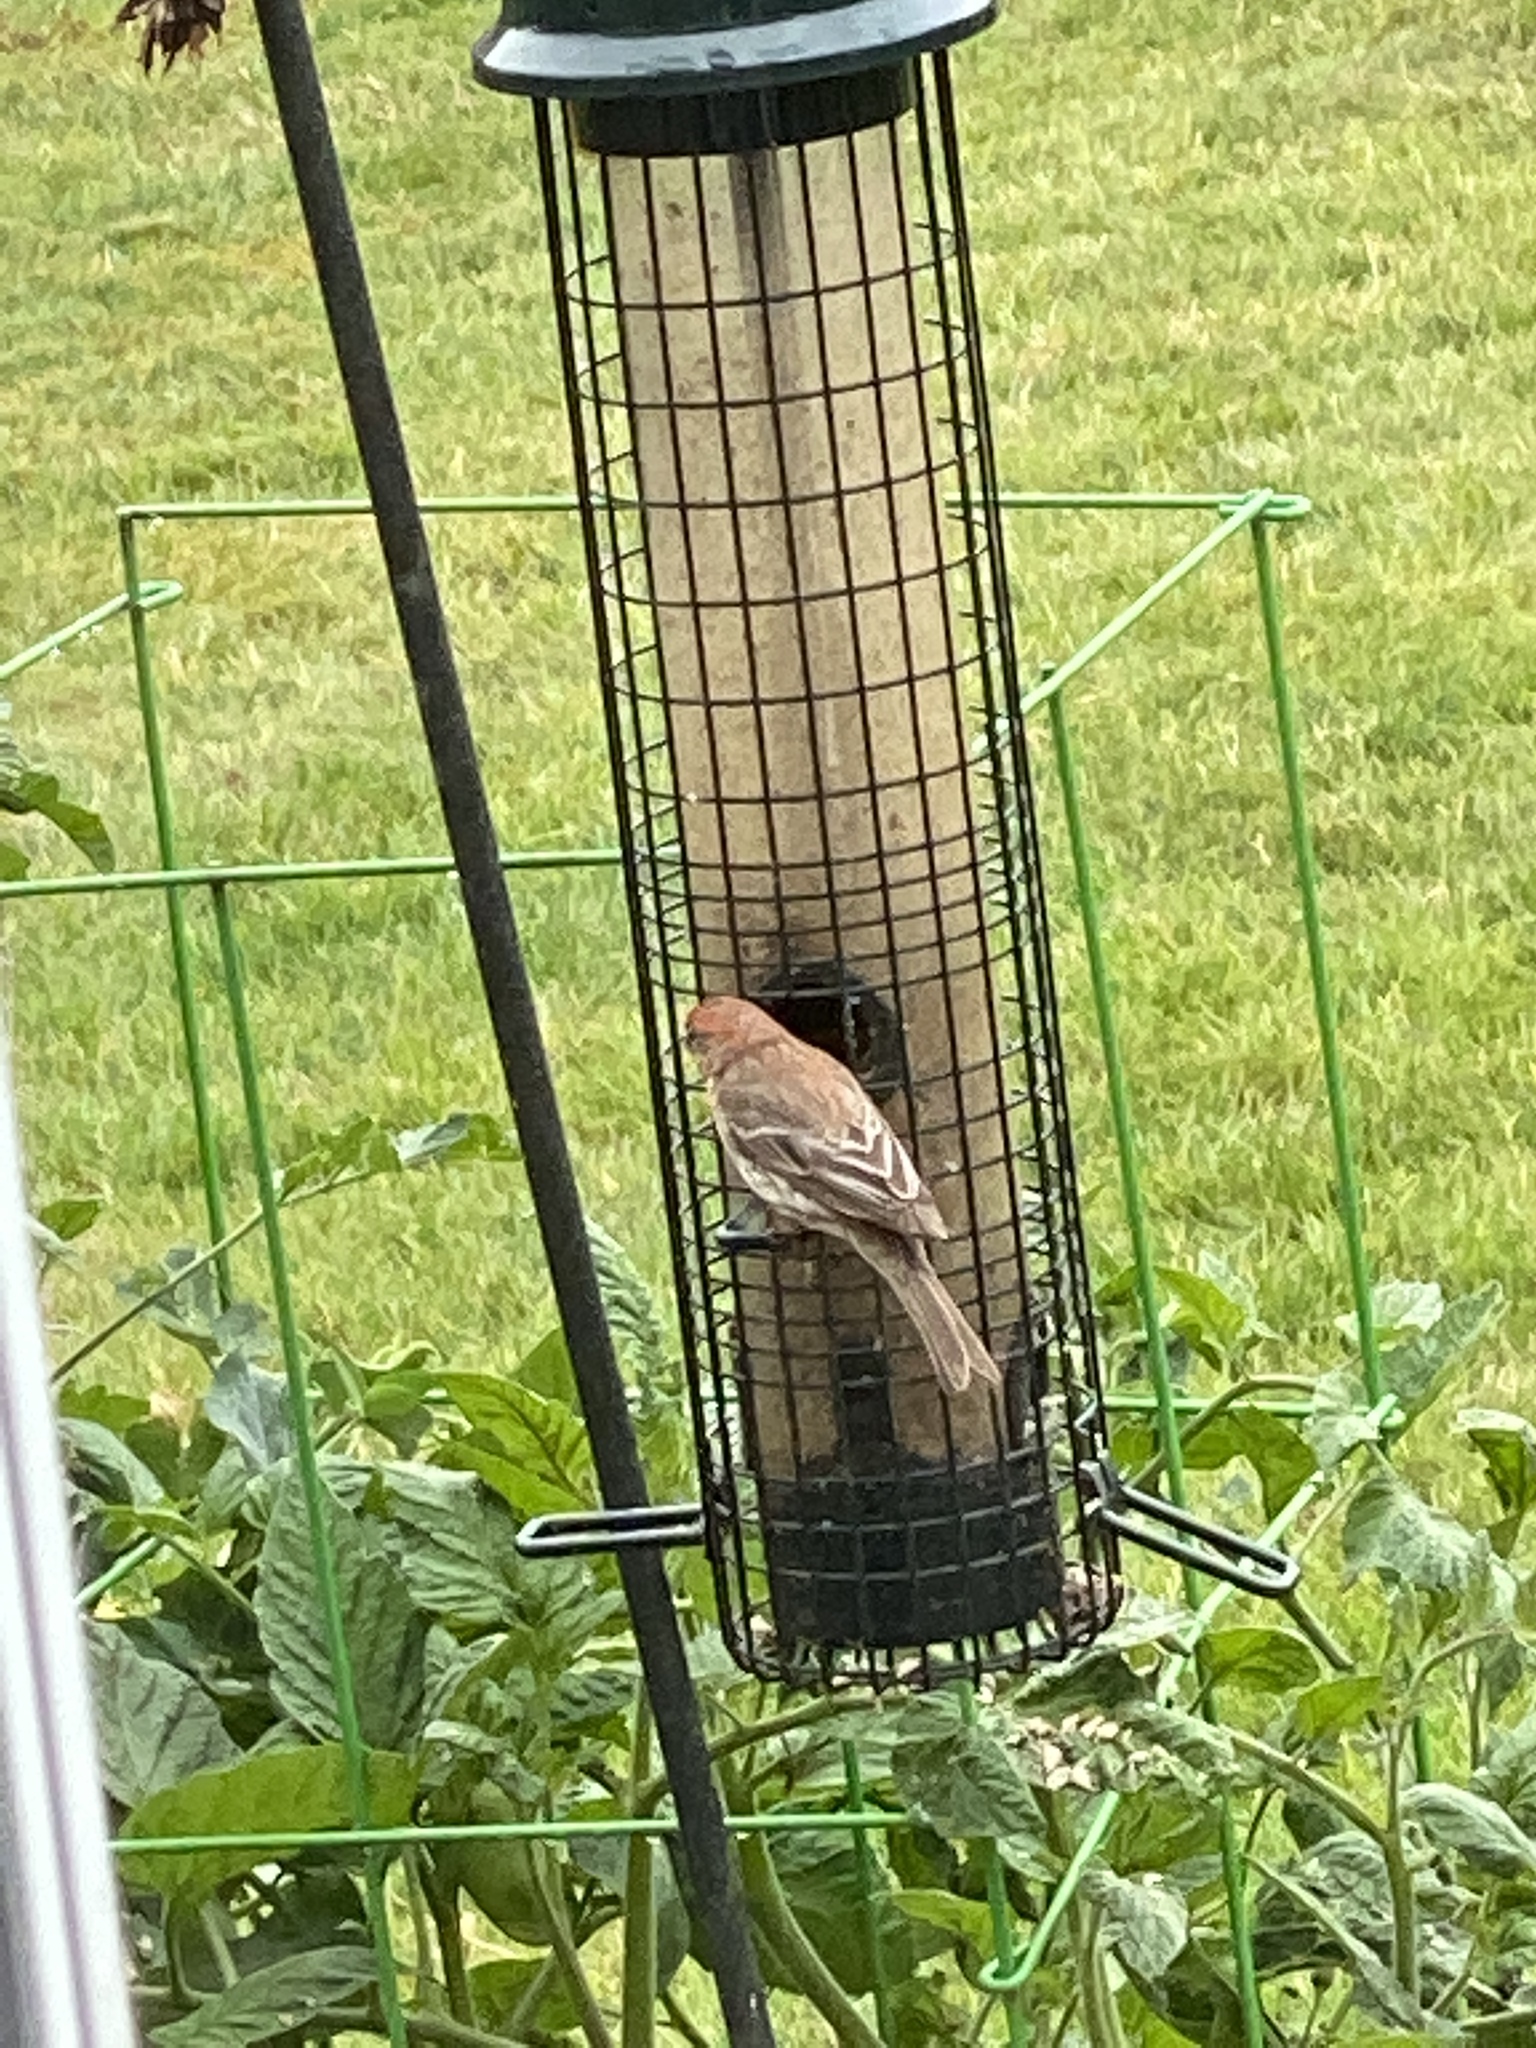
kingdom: Animalia
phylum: Chordata
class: Aves
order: Passeriformes
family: Fringillidae
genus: Haemorhous
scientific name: Haemorhous mexicanus
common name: House finch
